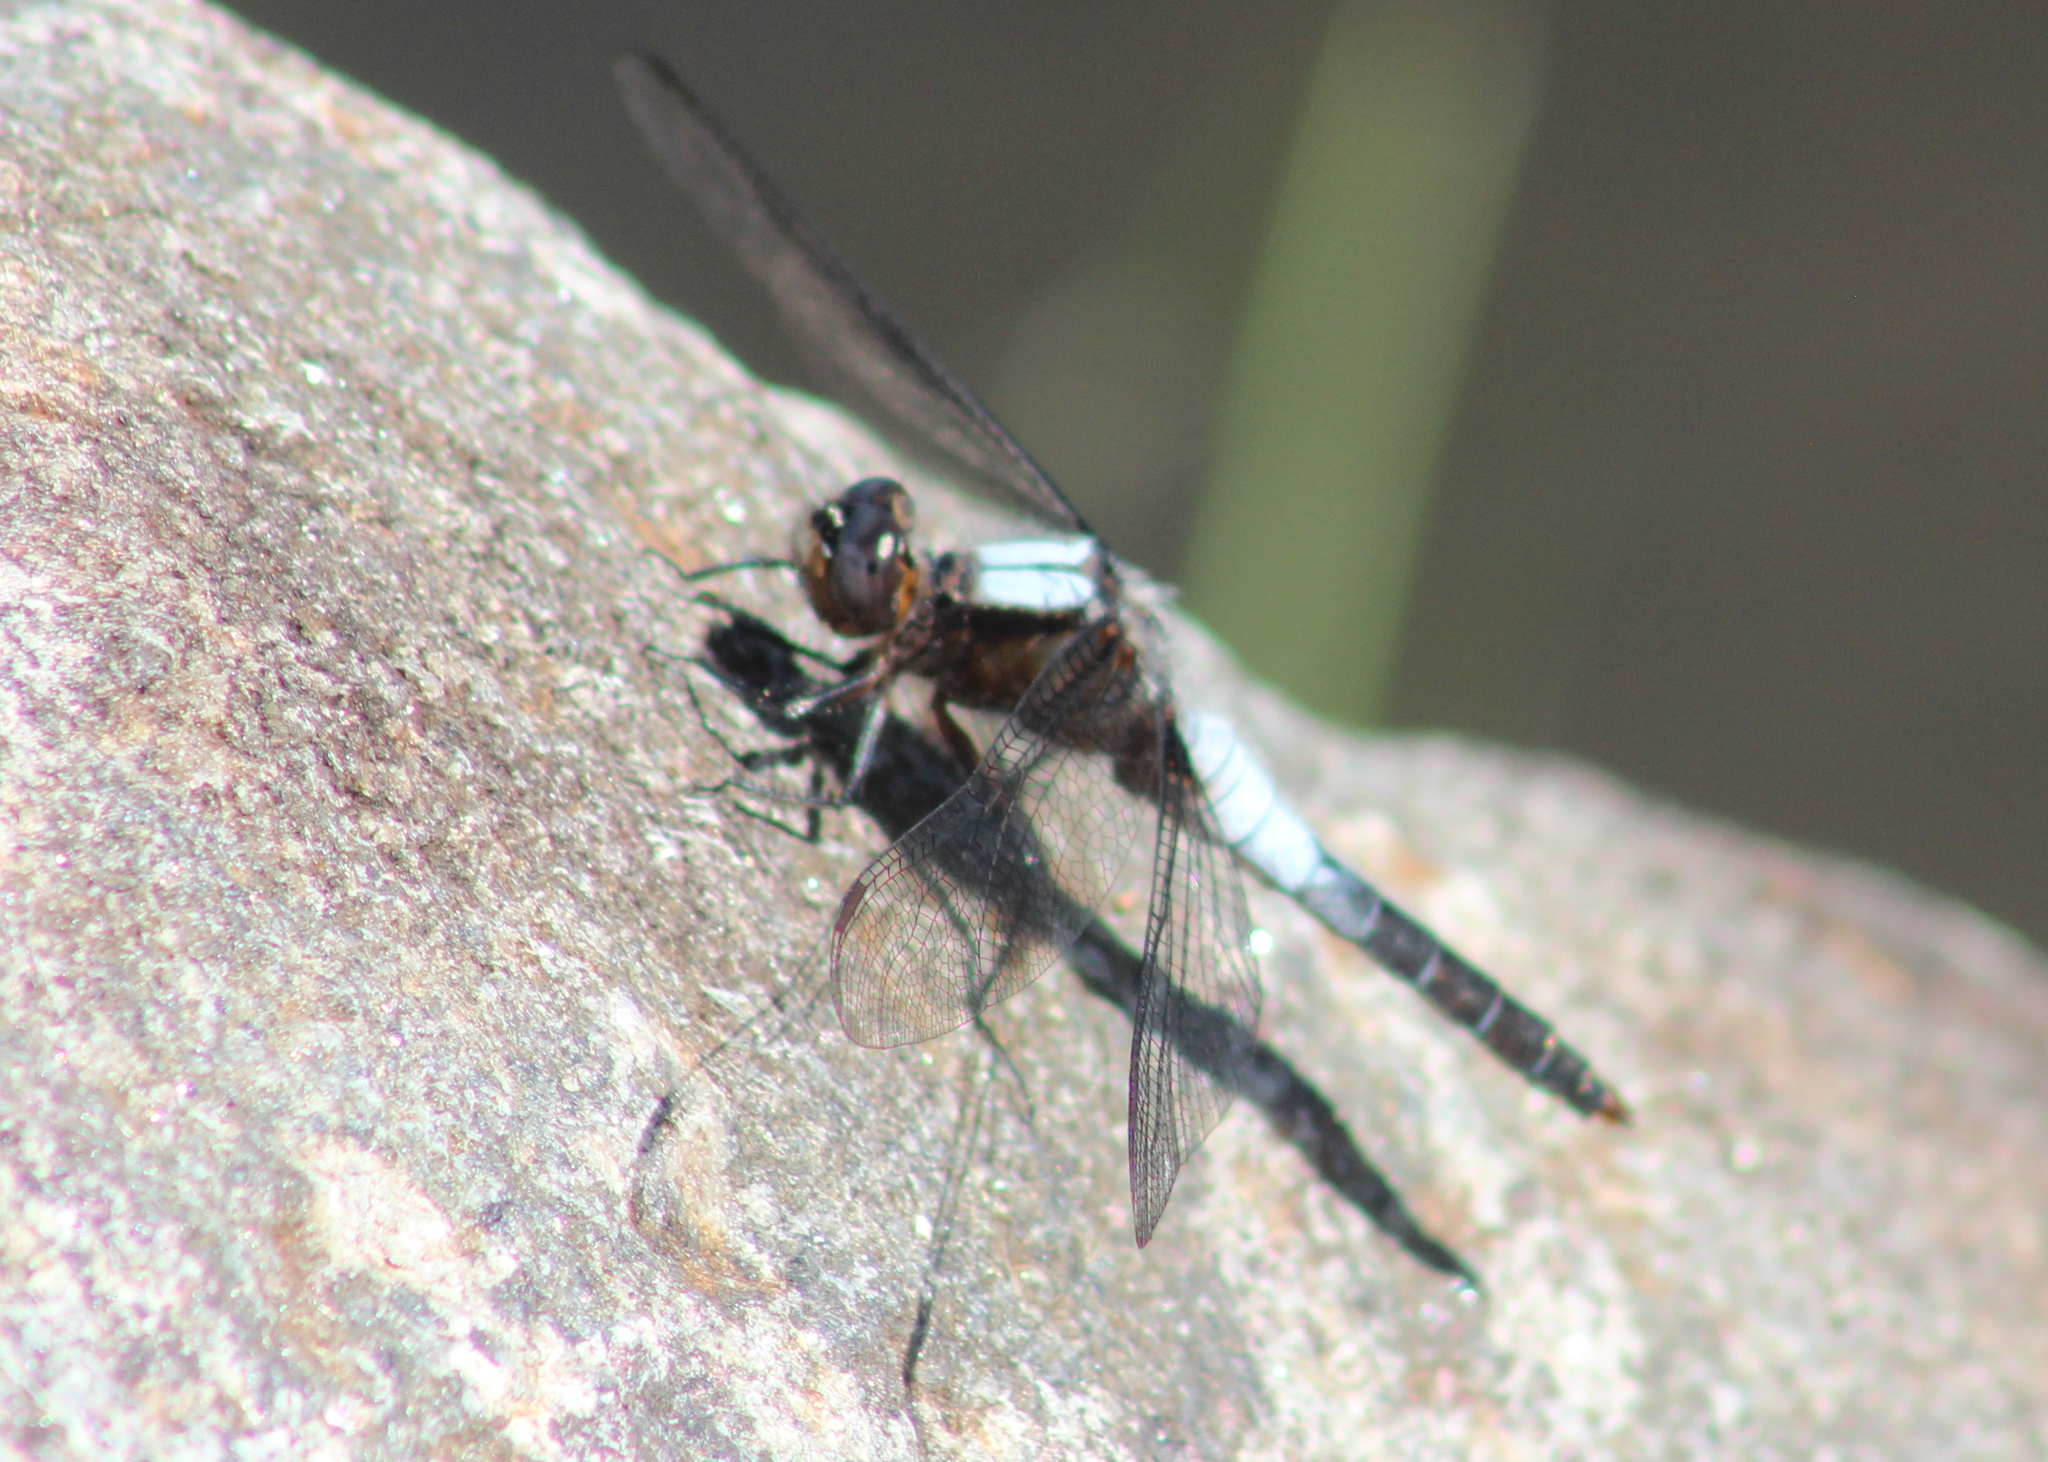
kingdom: Animalia
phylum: Arthropoda
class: Insecta
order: Odonata
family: Libellulidae
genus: Ladona
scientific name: Ladona julia
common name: Chalk-fronted corporal
